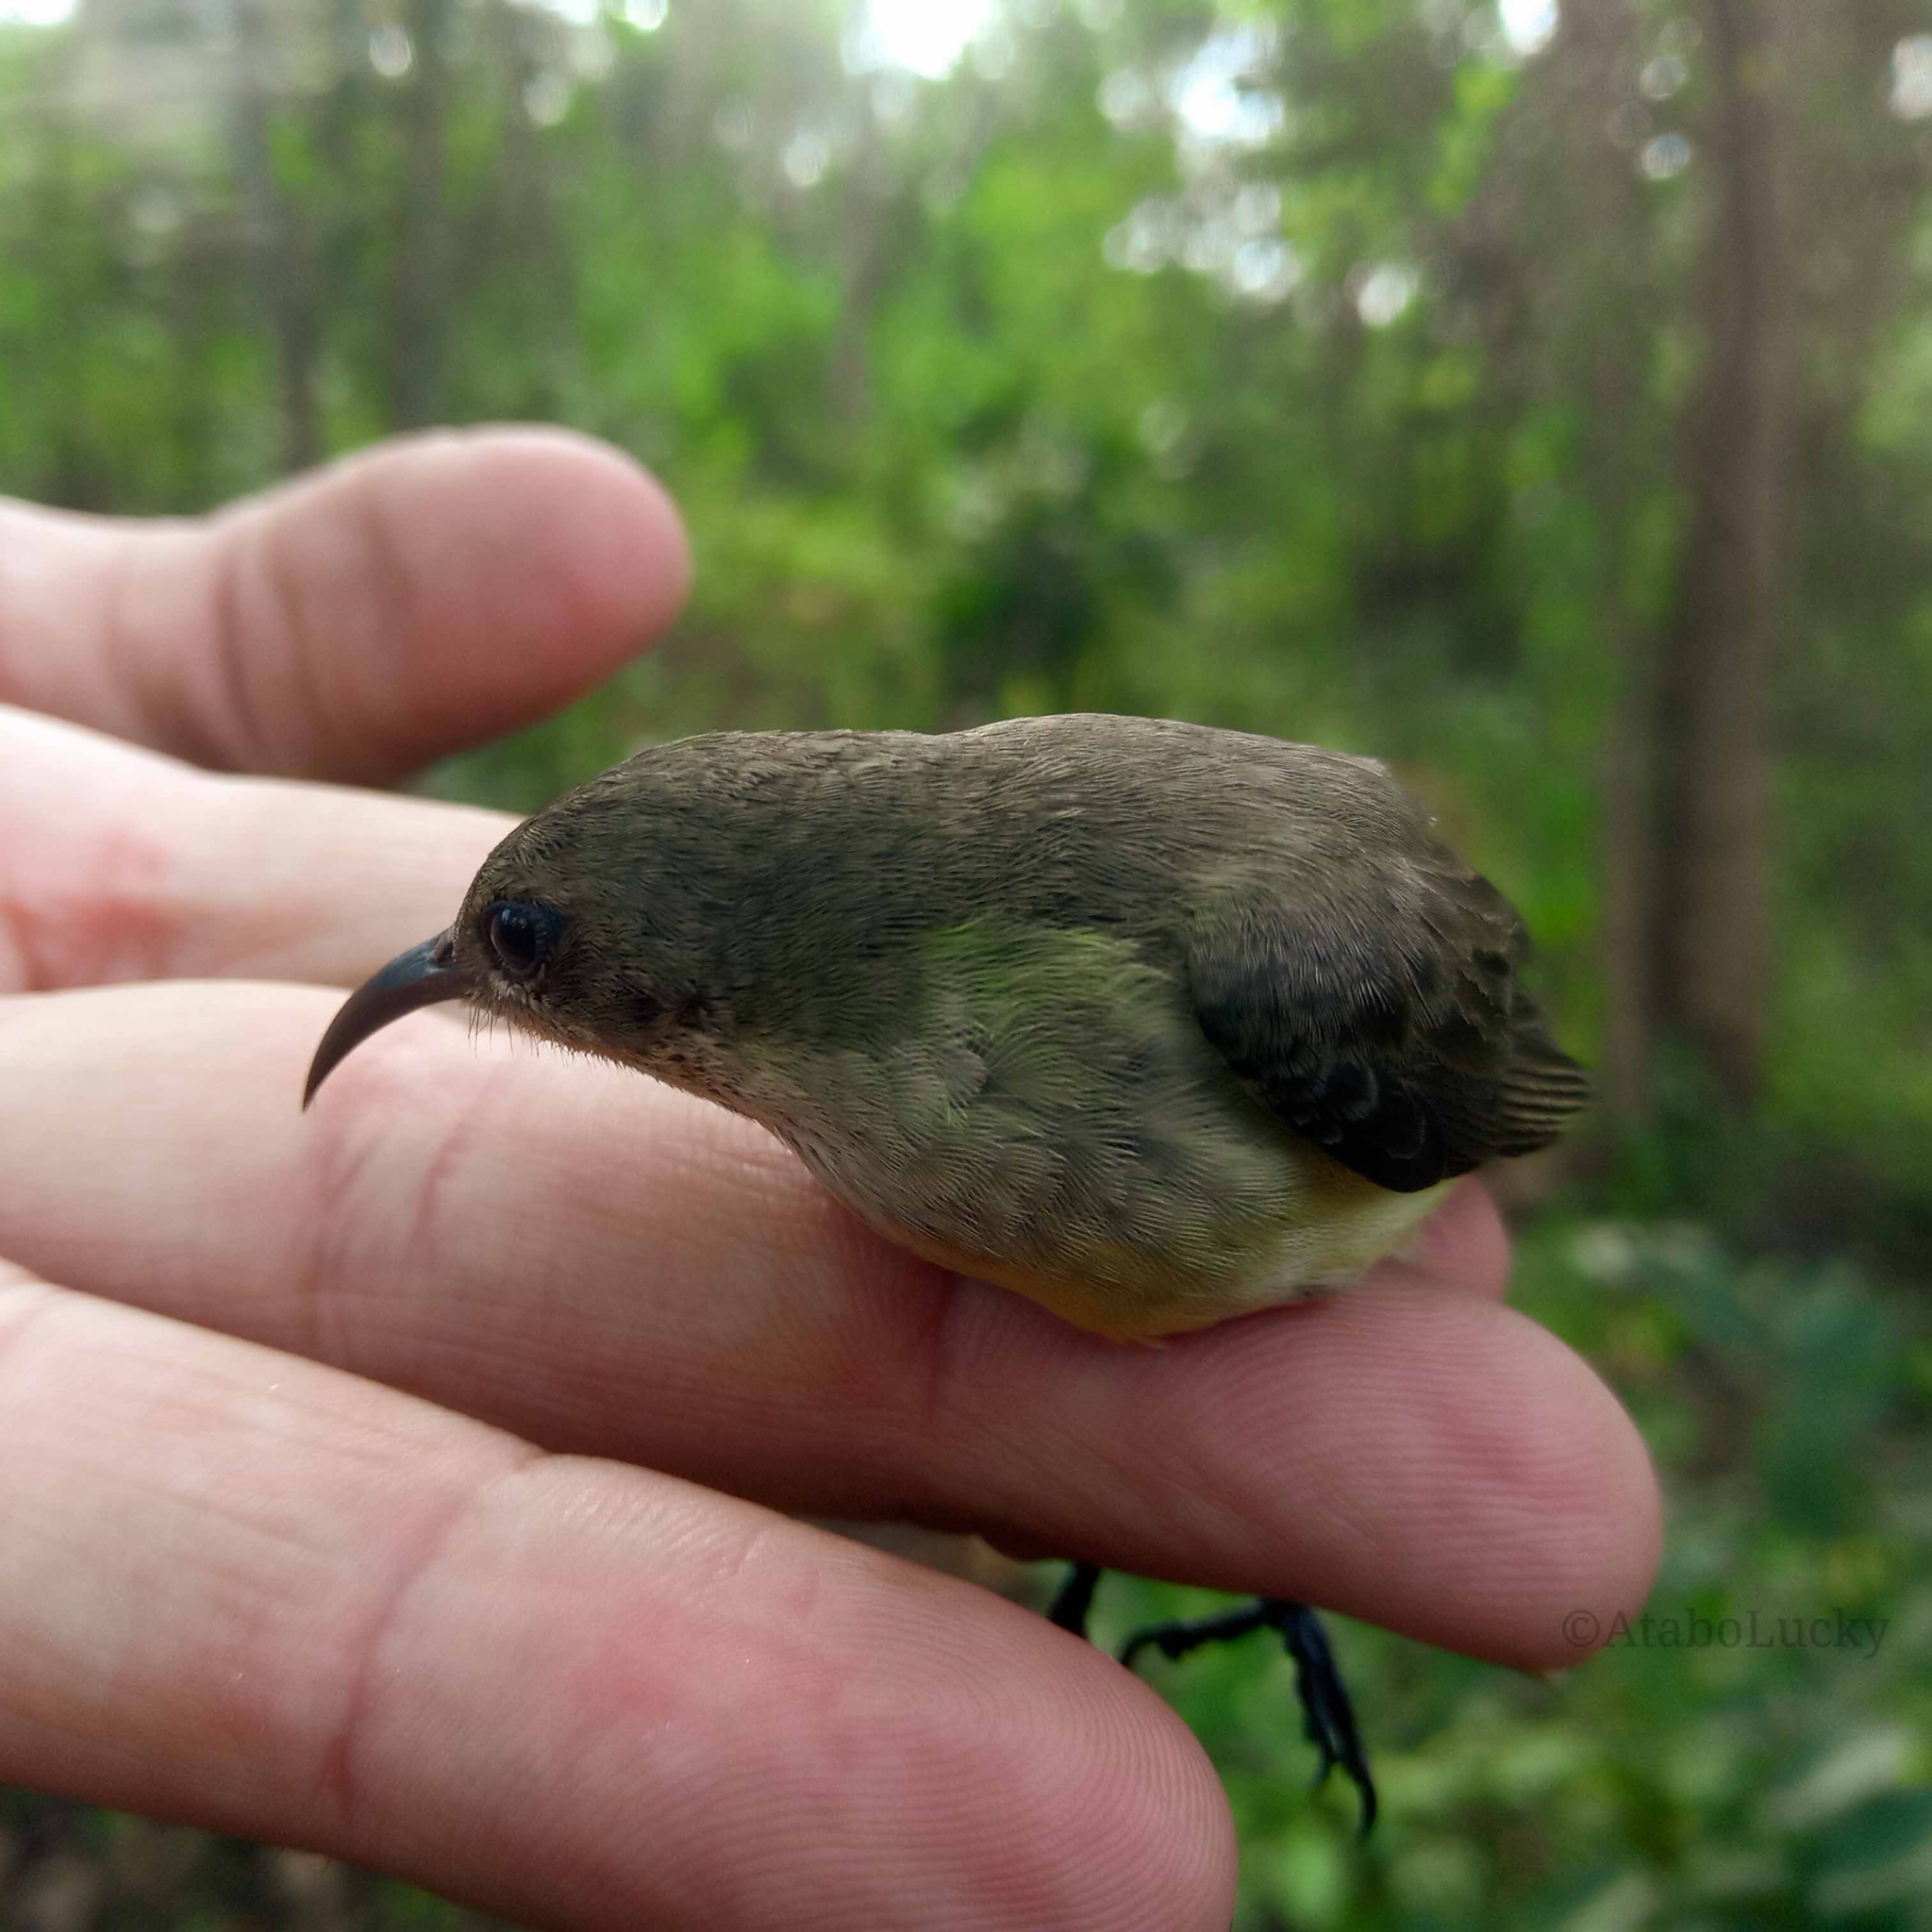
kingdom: Animalia
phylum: Chordata
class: Aves
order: Passeriformes
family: Nectariniidae
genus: Cinnyris
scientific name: Cinnyris venustus
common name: Variable sunbird
